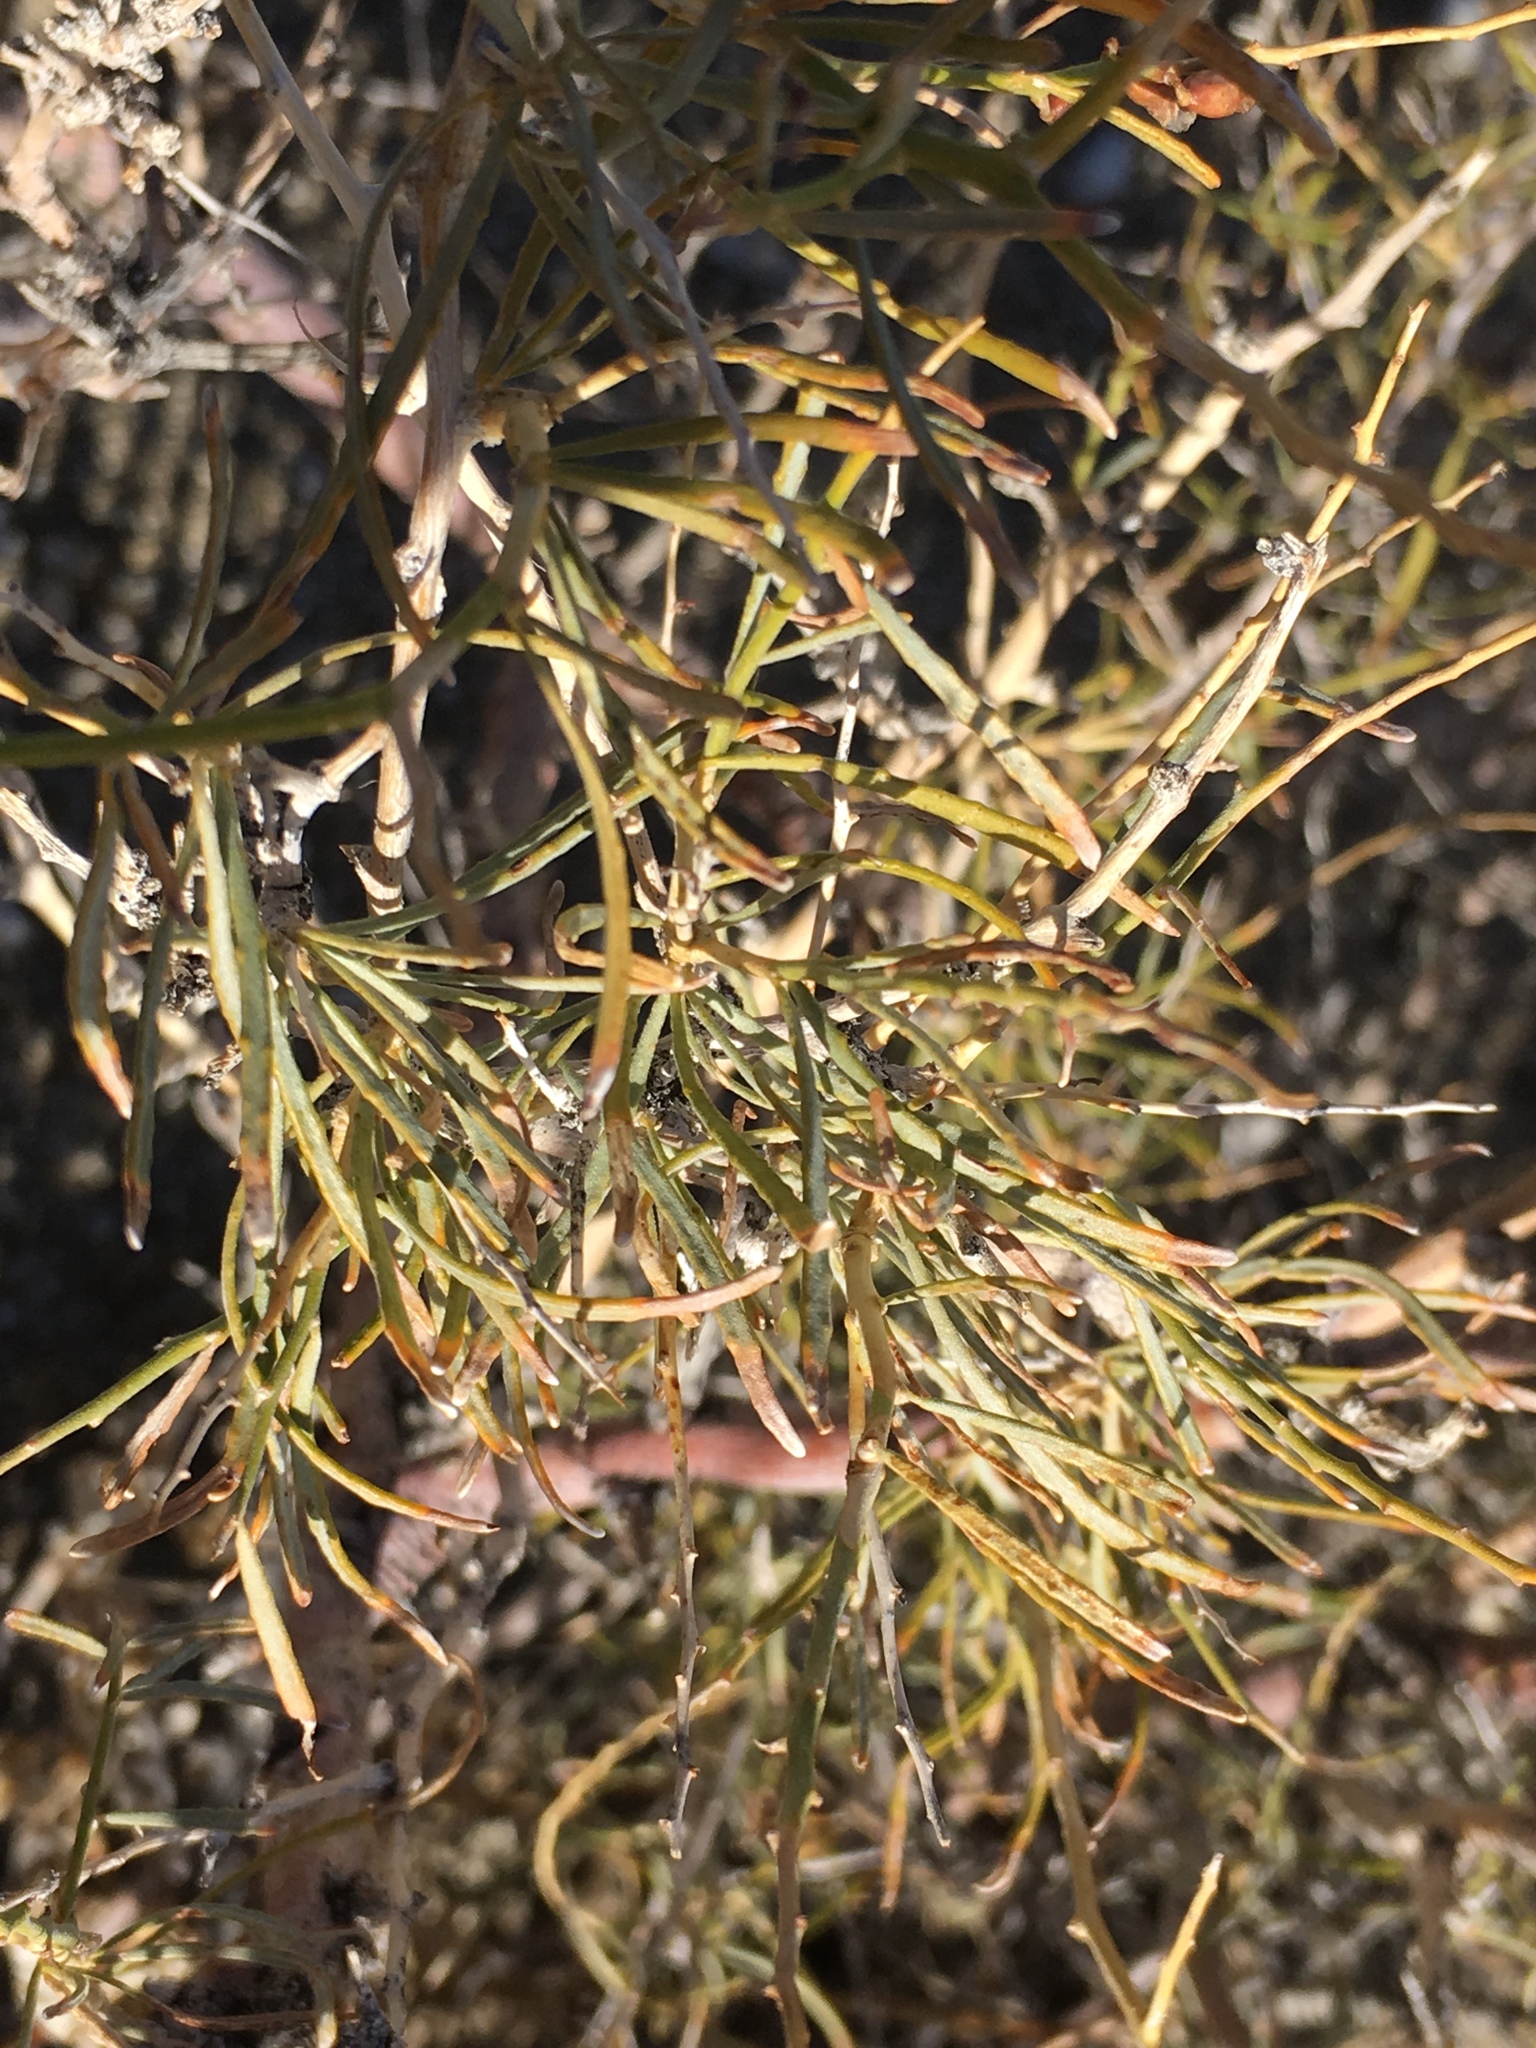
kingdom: Plantae
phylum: Tracheophyta
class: Magnoliopsida
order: Fabales
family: Fabaceae
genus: Psorothamnus
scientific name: Psorothamnus schottii
